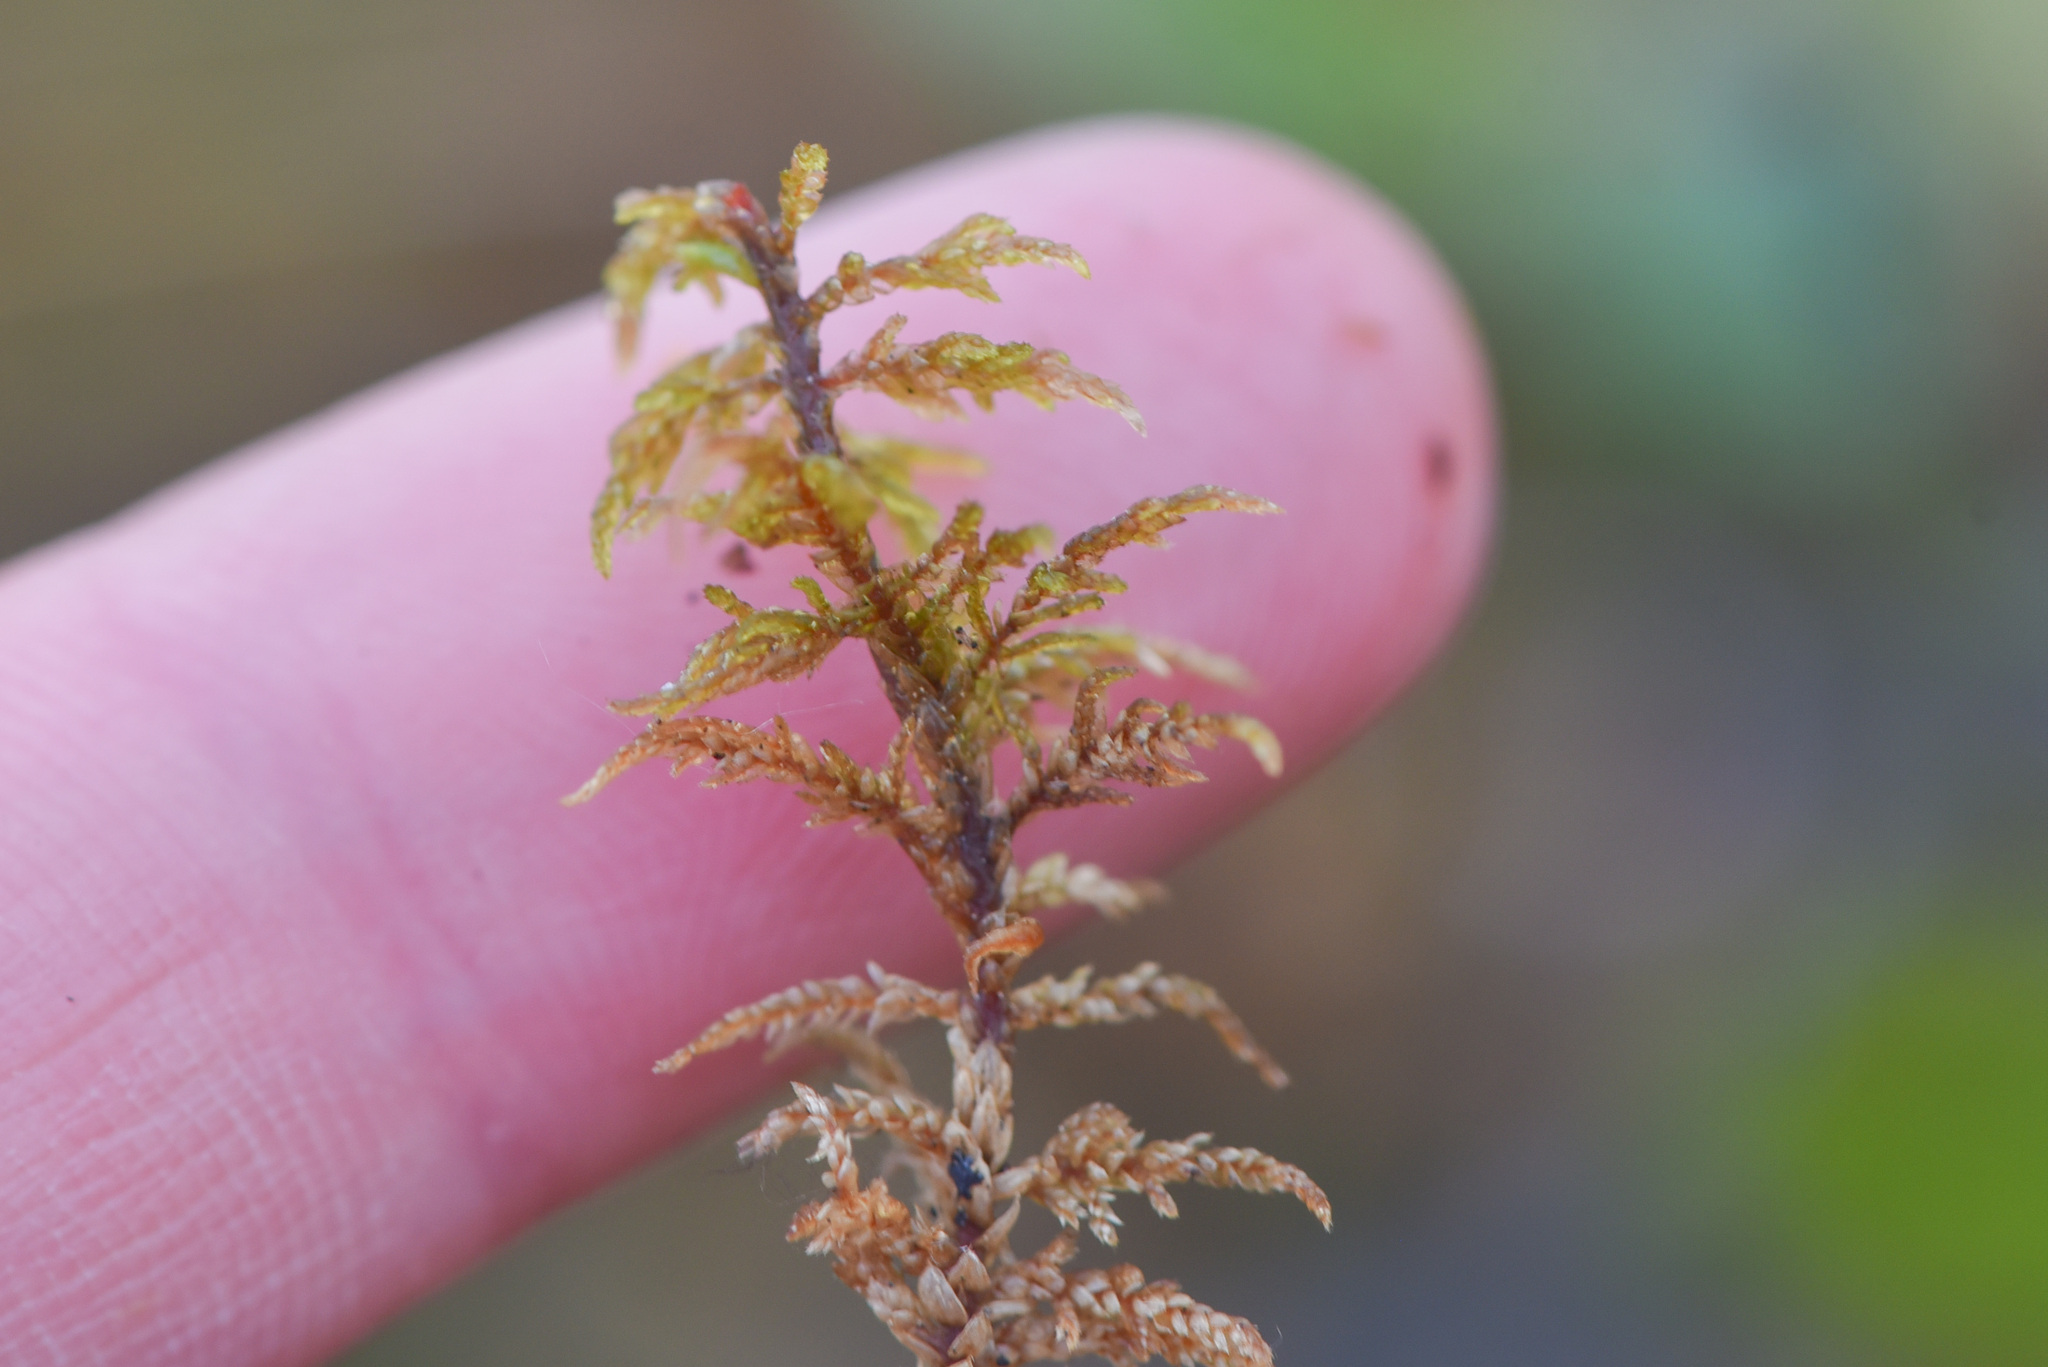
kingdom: Plantae
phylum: Bryophyta
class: Bryopsida
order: Hypnales
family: Hylocomiaceae
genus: Hylocomium
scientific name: Hylocomium splendens
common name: Stairstep moss
